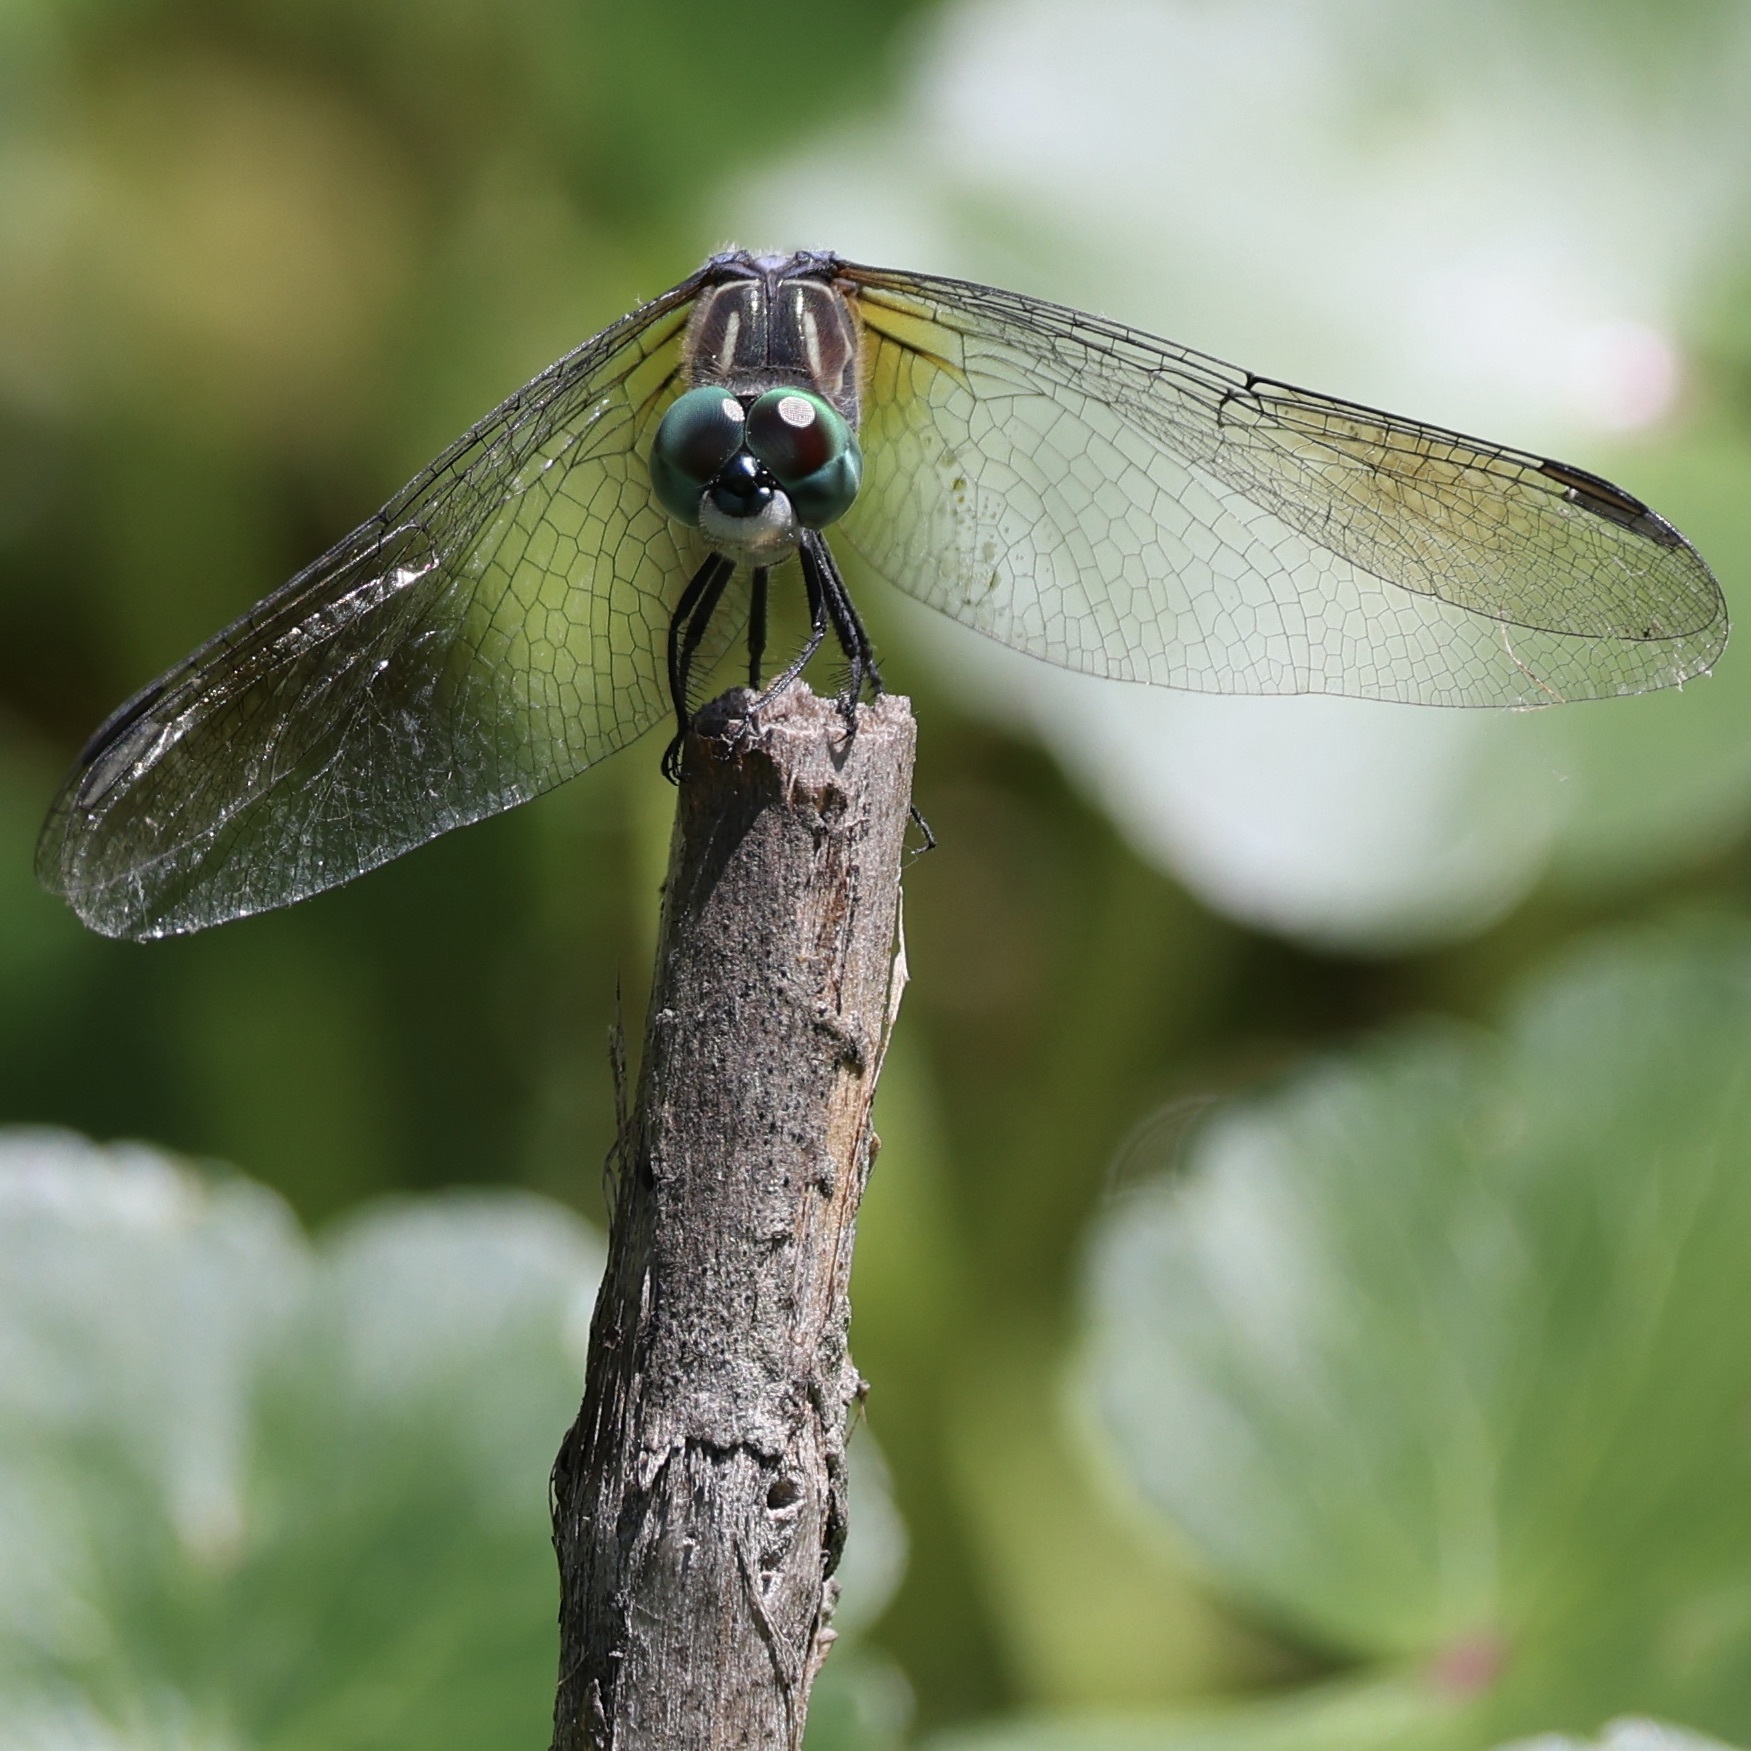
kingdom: Animalia
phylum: Arthropoda
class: Insecta
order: Odonata
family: Libellulidae
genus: Pachydiplax
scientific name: Pachydiplax longipennis
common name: Blue dasher
